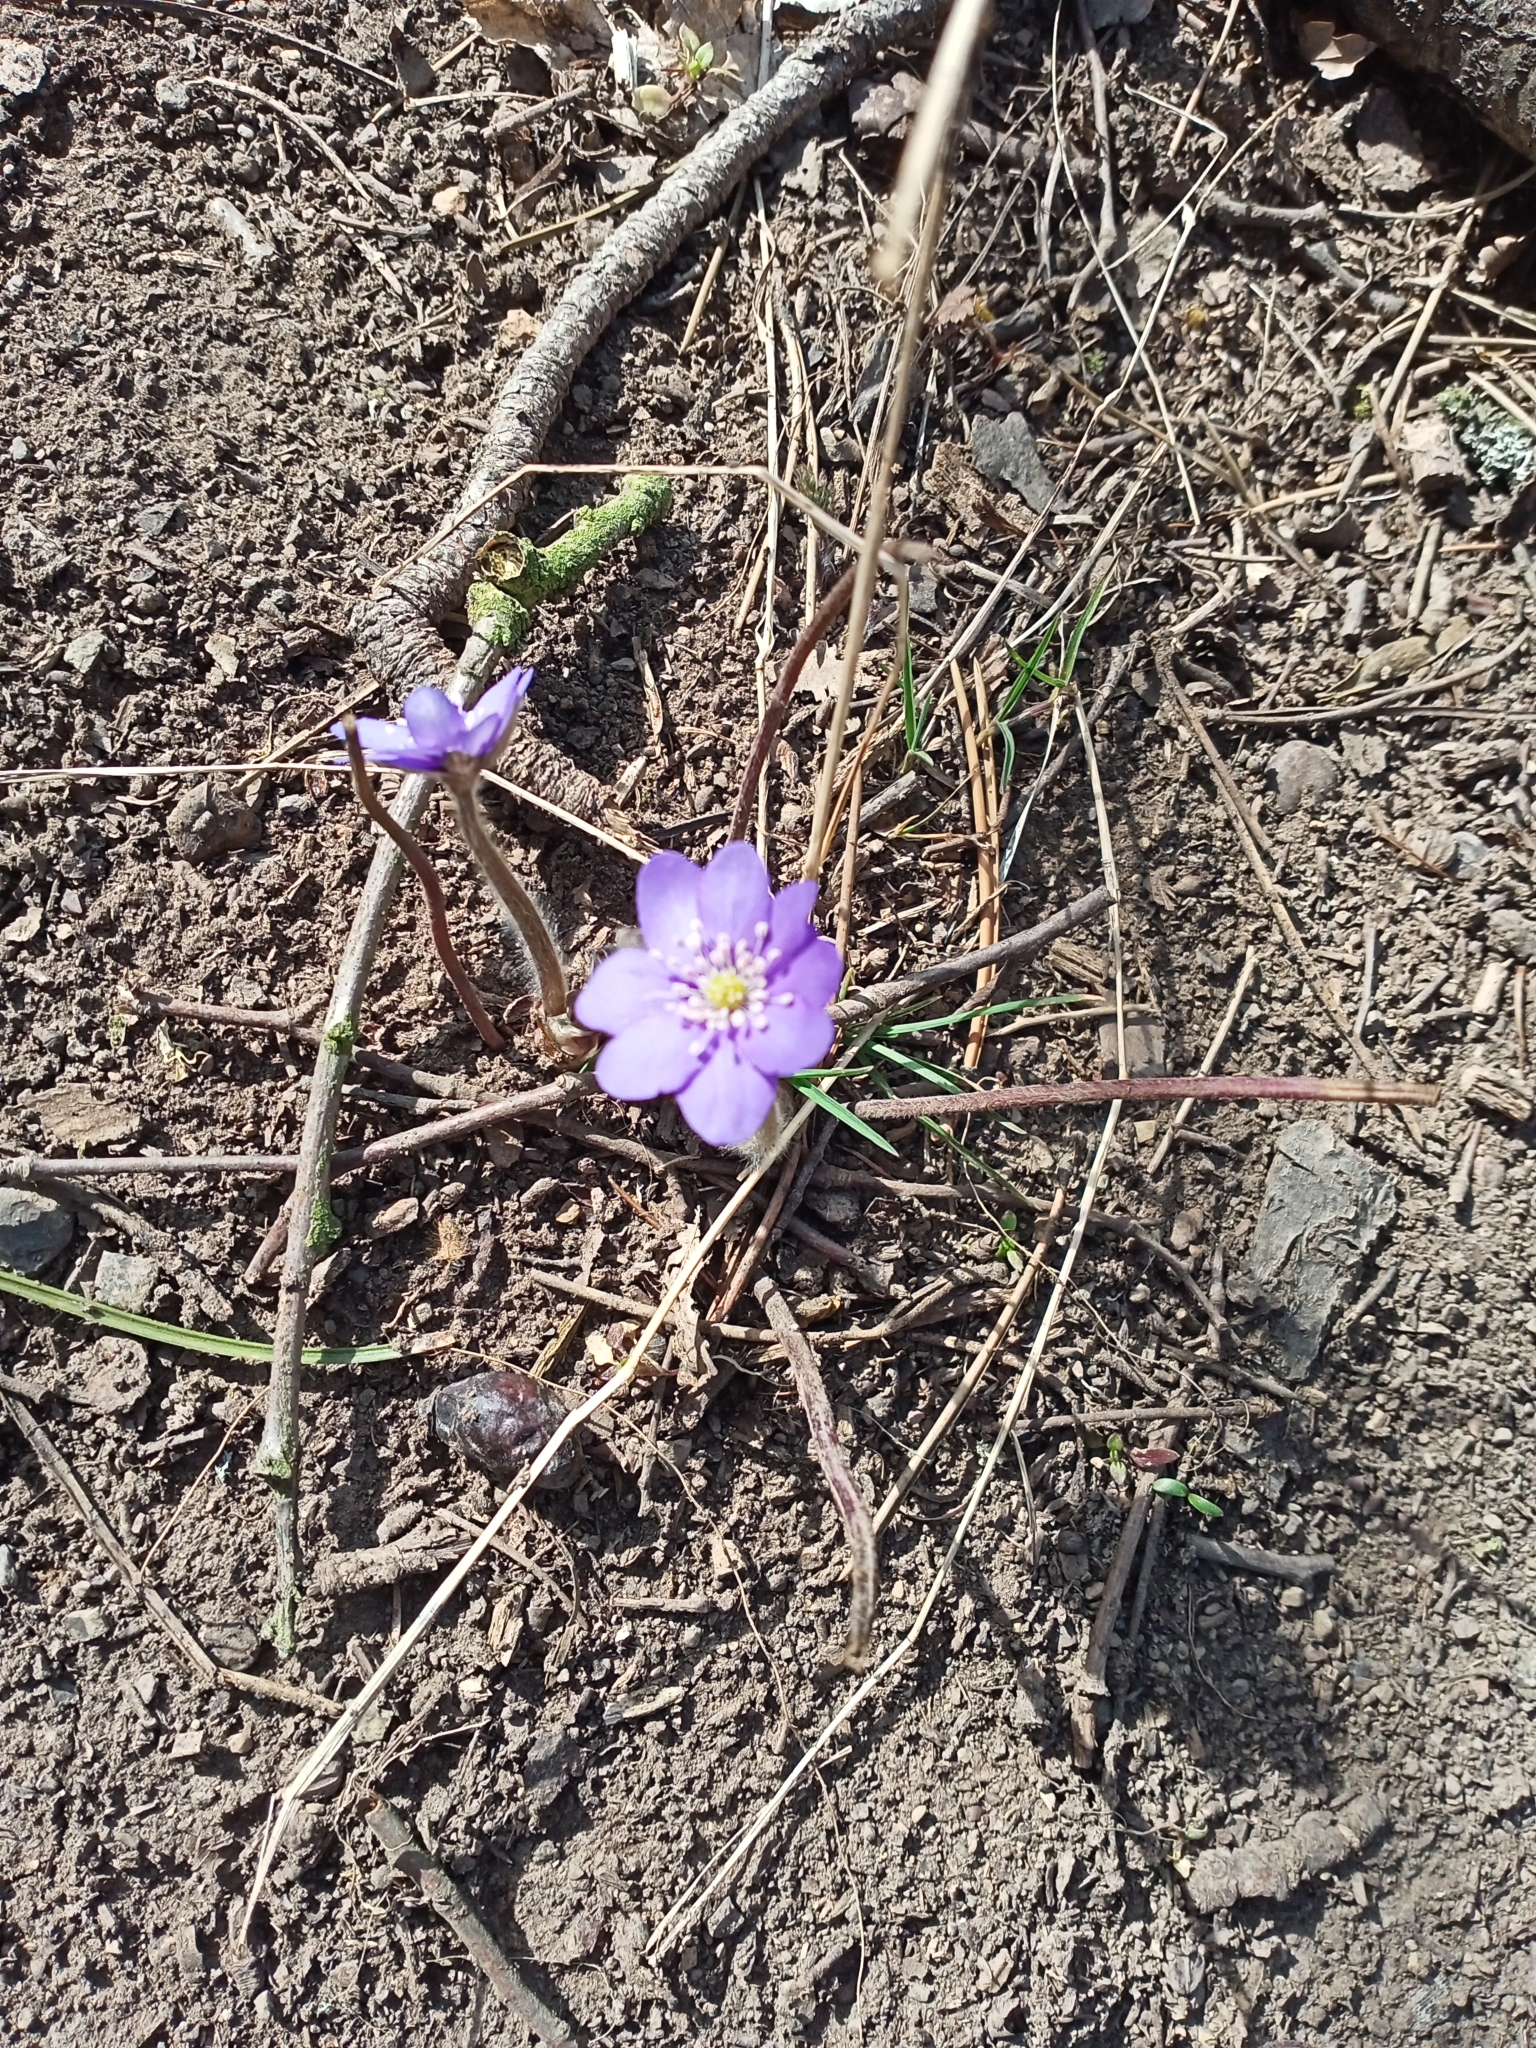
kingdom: Plantae
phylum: Tracheophyta
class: Magnoliopsida
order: Ranunculales
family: Ranunculaceae
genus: Hepatica
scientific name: Hepatica nobilis
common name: Liverleaf
